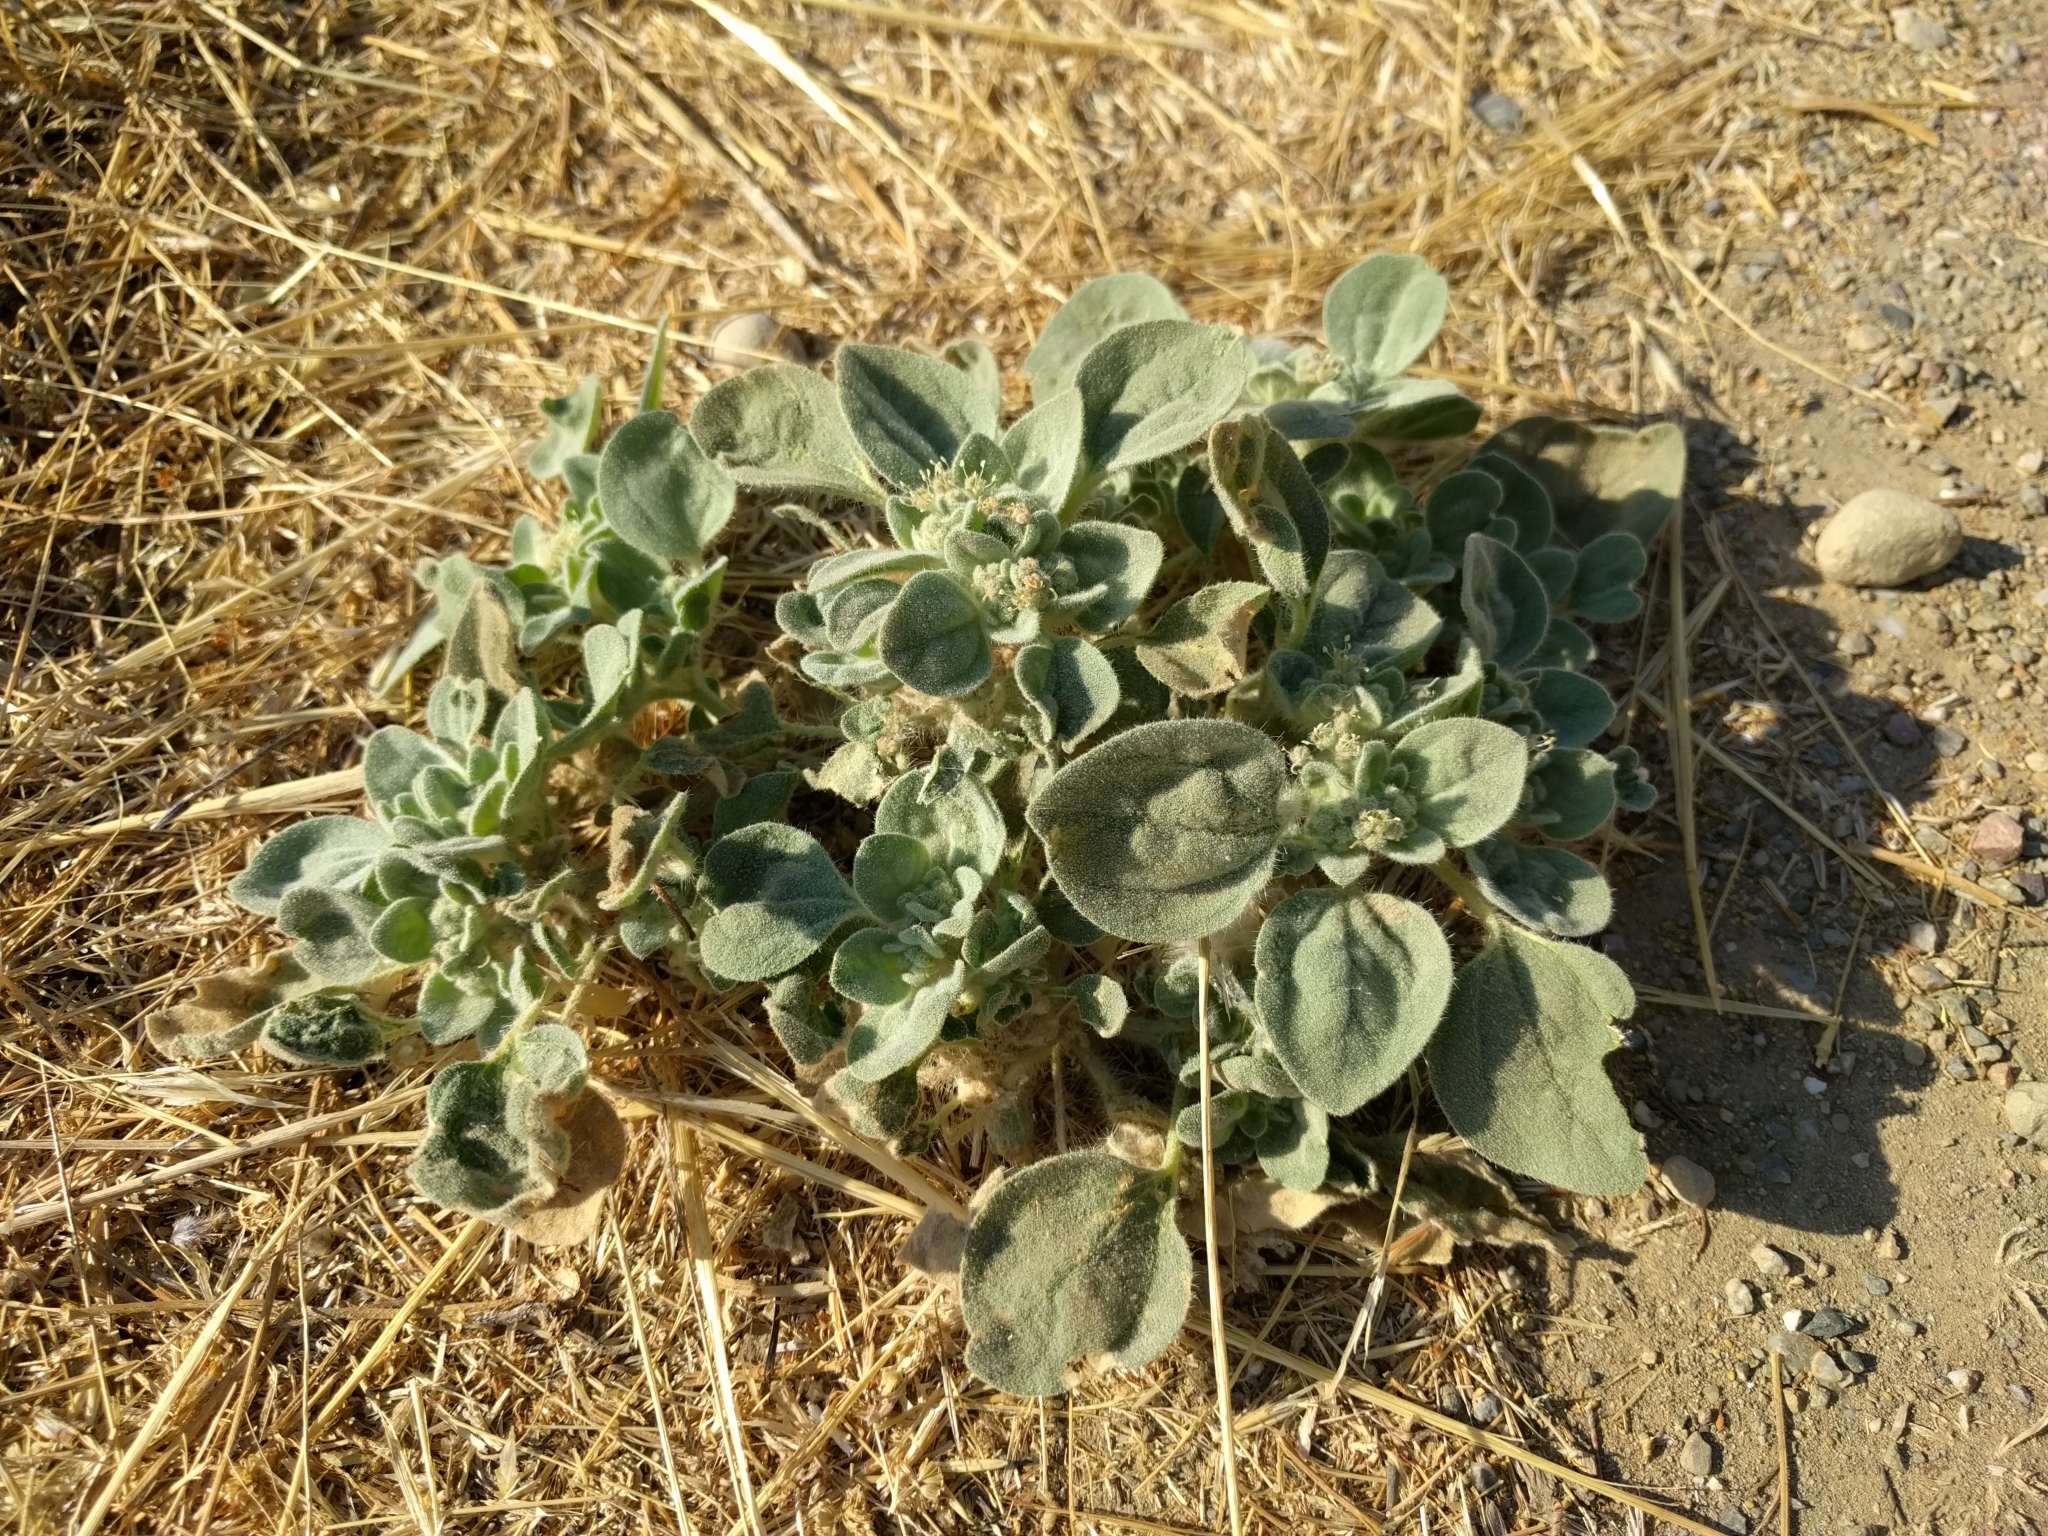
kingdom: Plantae
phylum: Tracheophyta
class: Magnoliopsida
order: Malpighiales
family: Euphorbiaceae
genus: Croton
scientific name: Croton setiger
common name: Dove weed
